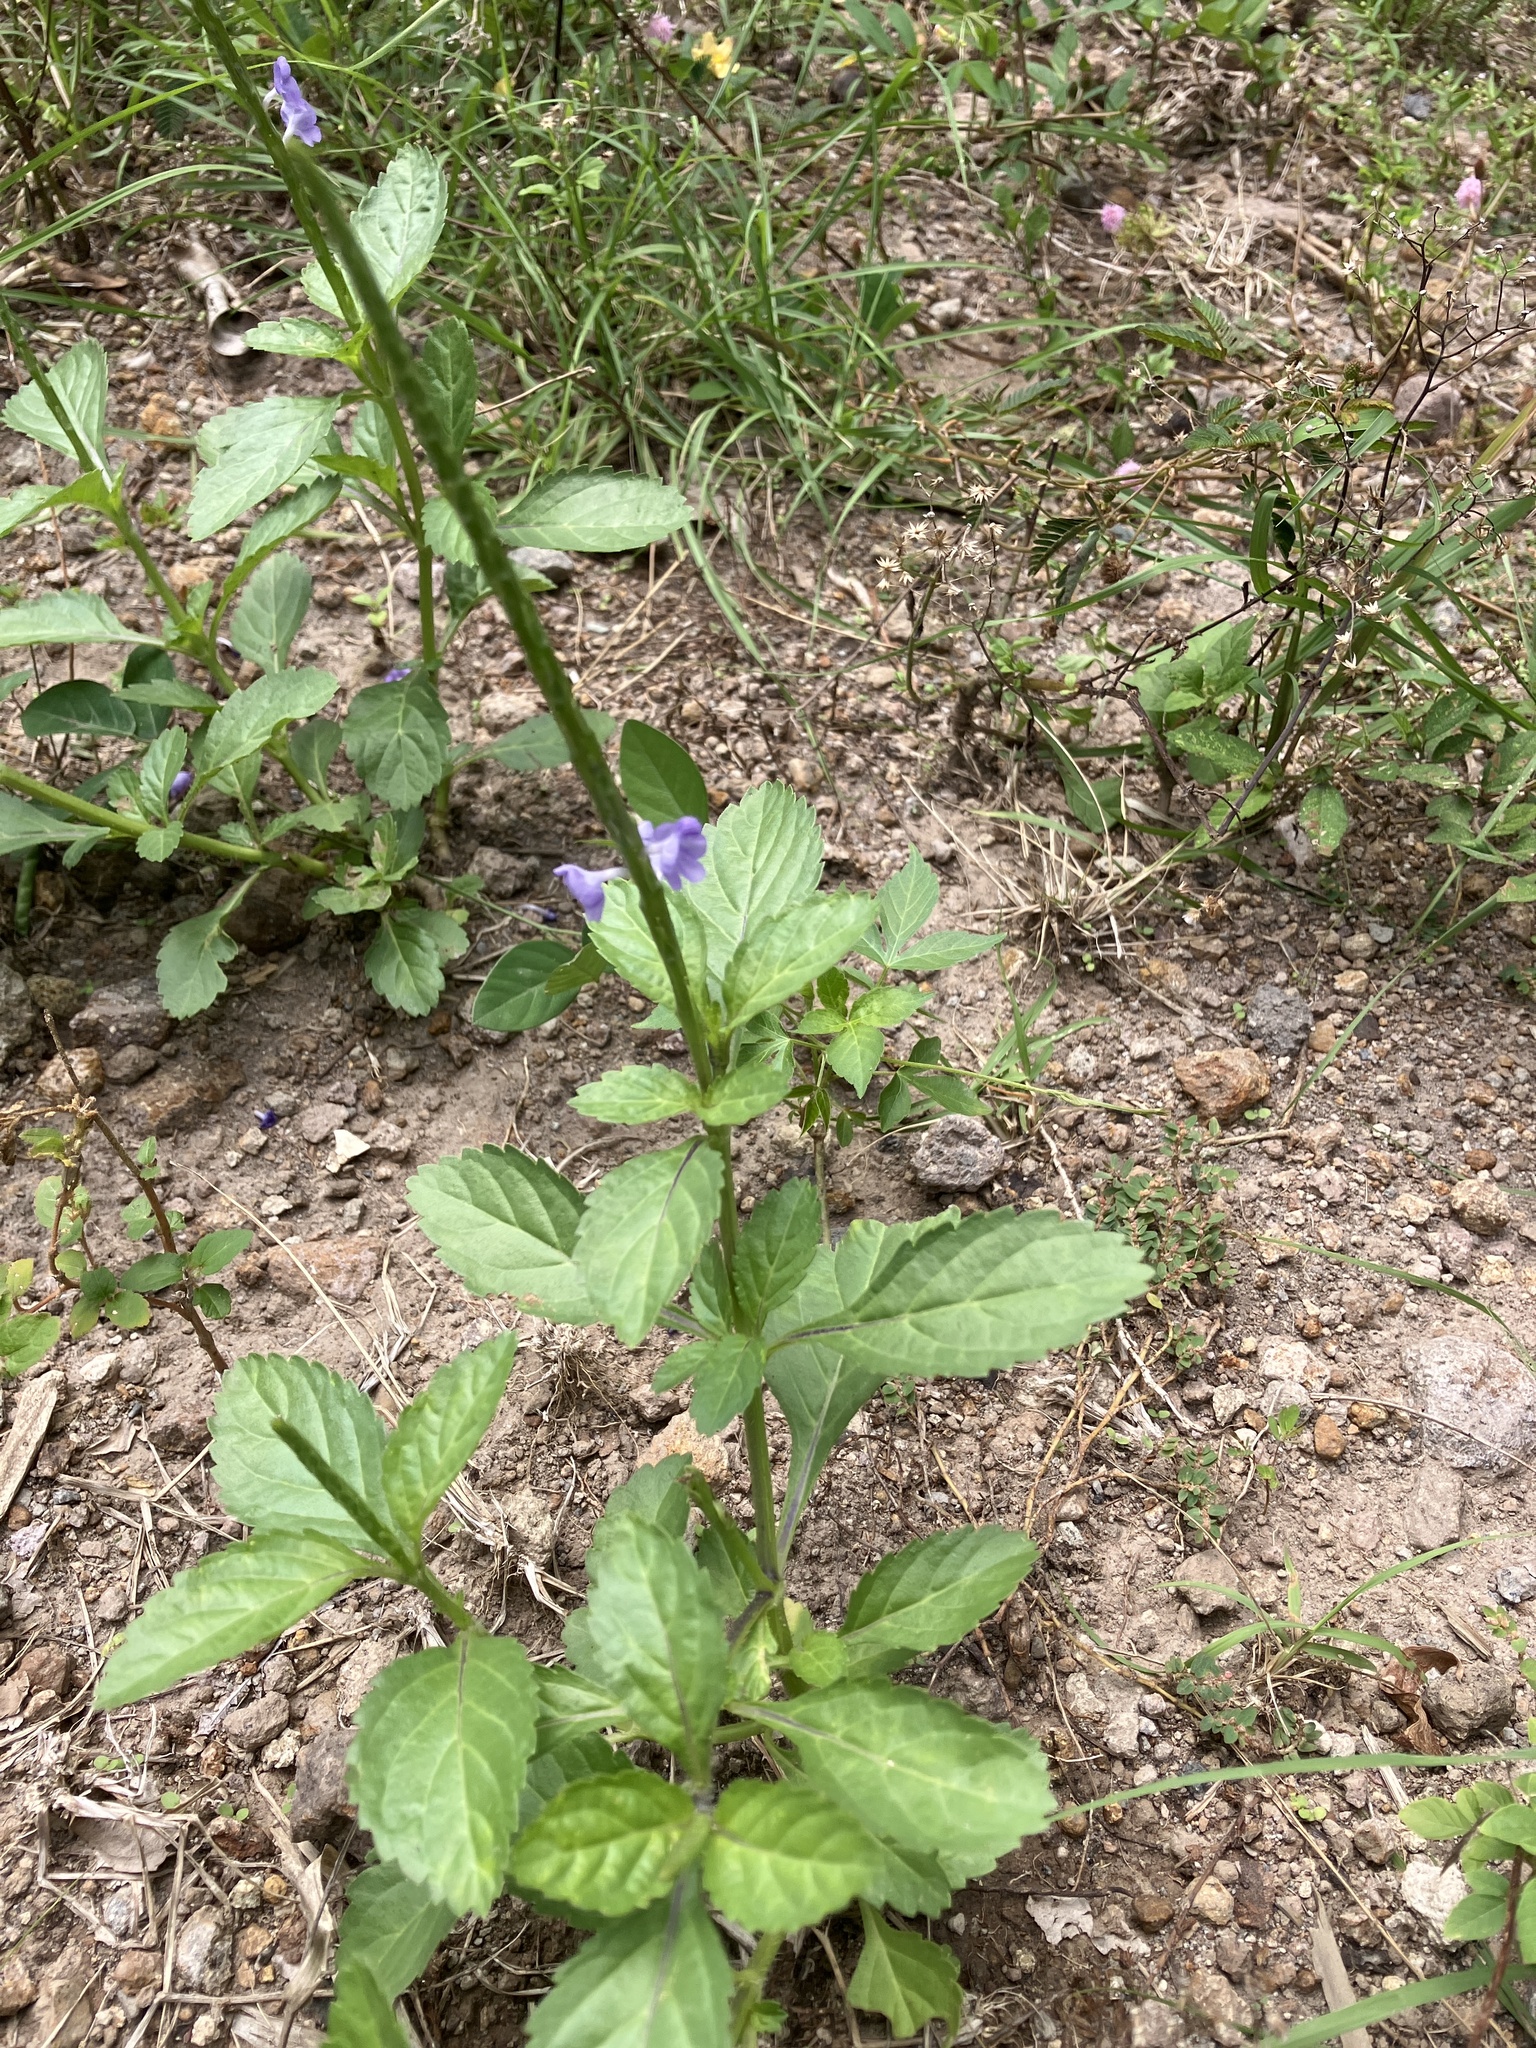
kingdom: Plantae
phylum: Tracheophyta
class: Magnoliopsida
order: Lamiales
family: Verbenaceae
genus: Stachytarpheta
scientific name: Stachytarpheta jamaicensis
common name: Light-blue snakeweed
